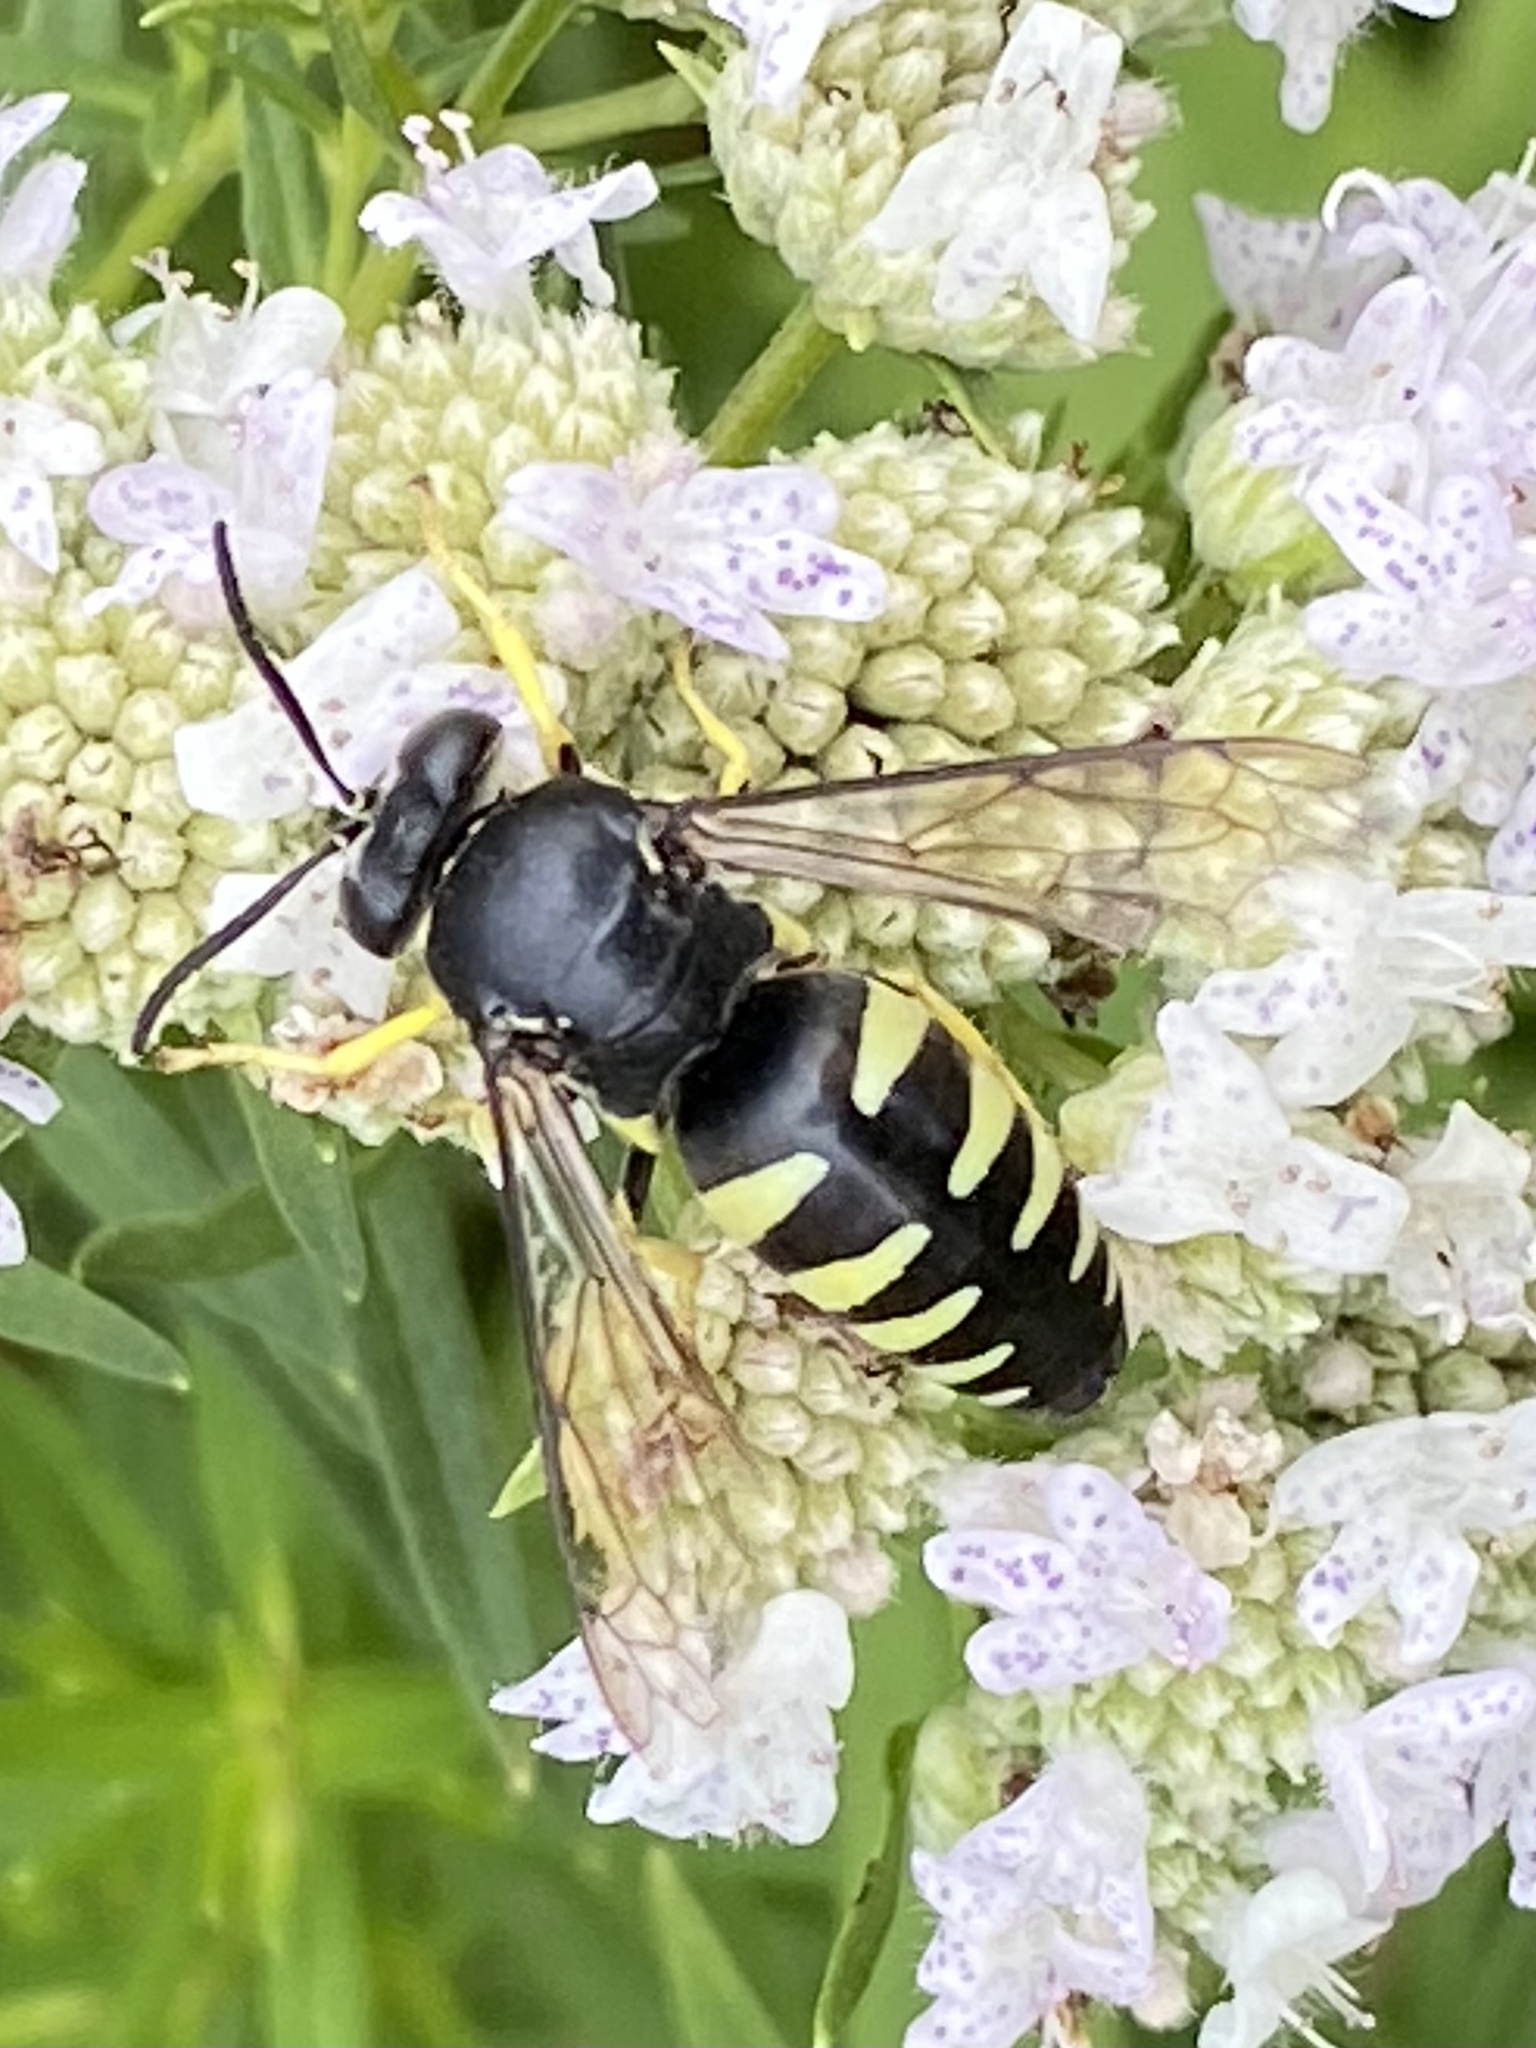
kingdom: Animalia
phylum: Arthropoda
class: Insecta
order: Hymenoptera
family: Crabronidae
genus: Bicyrtes
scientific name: Bicyrtes quadrifasciatus
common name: Four-banded stink bug hunter wasp
